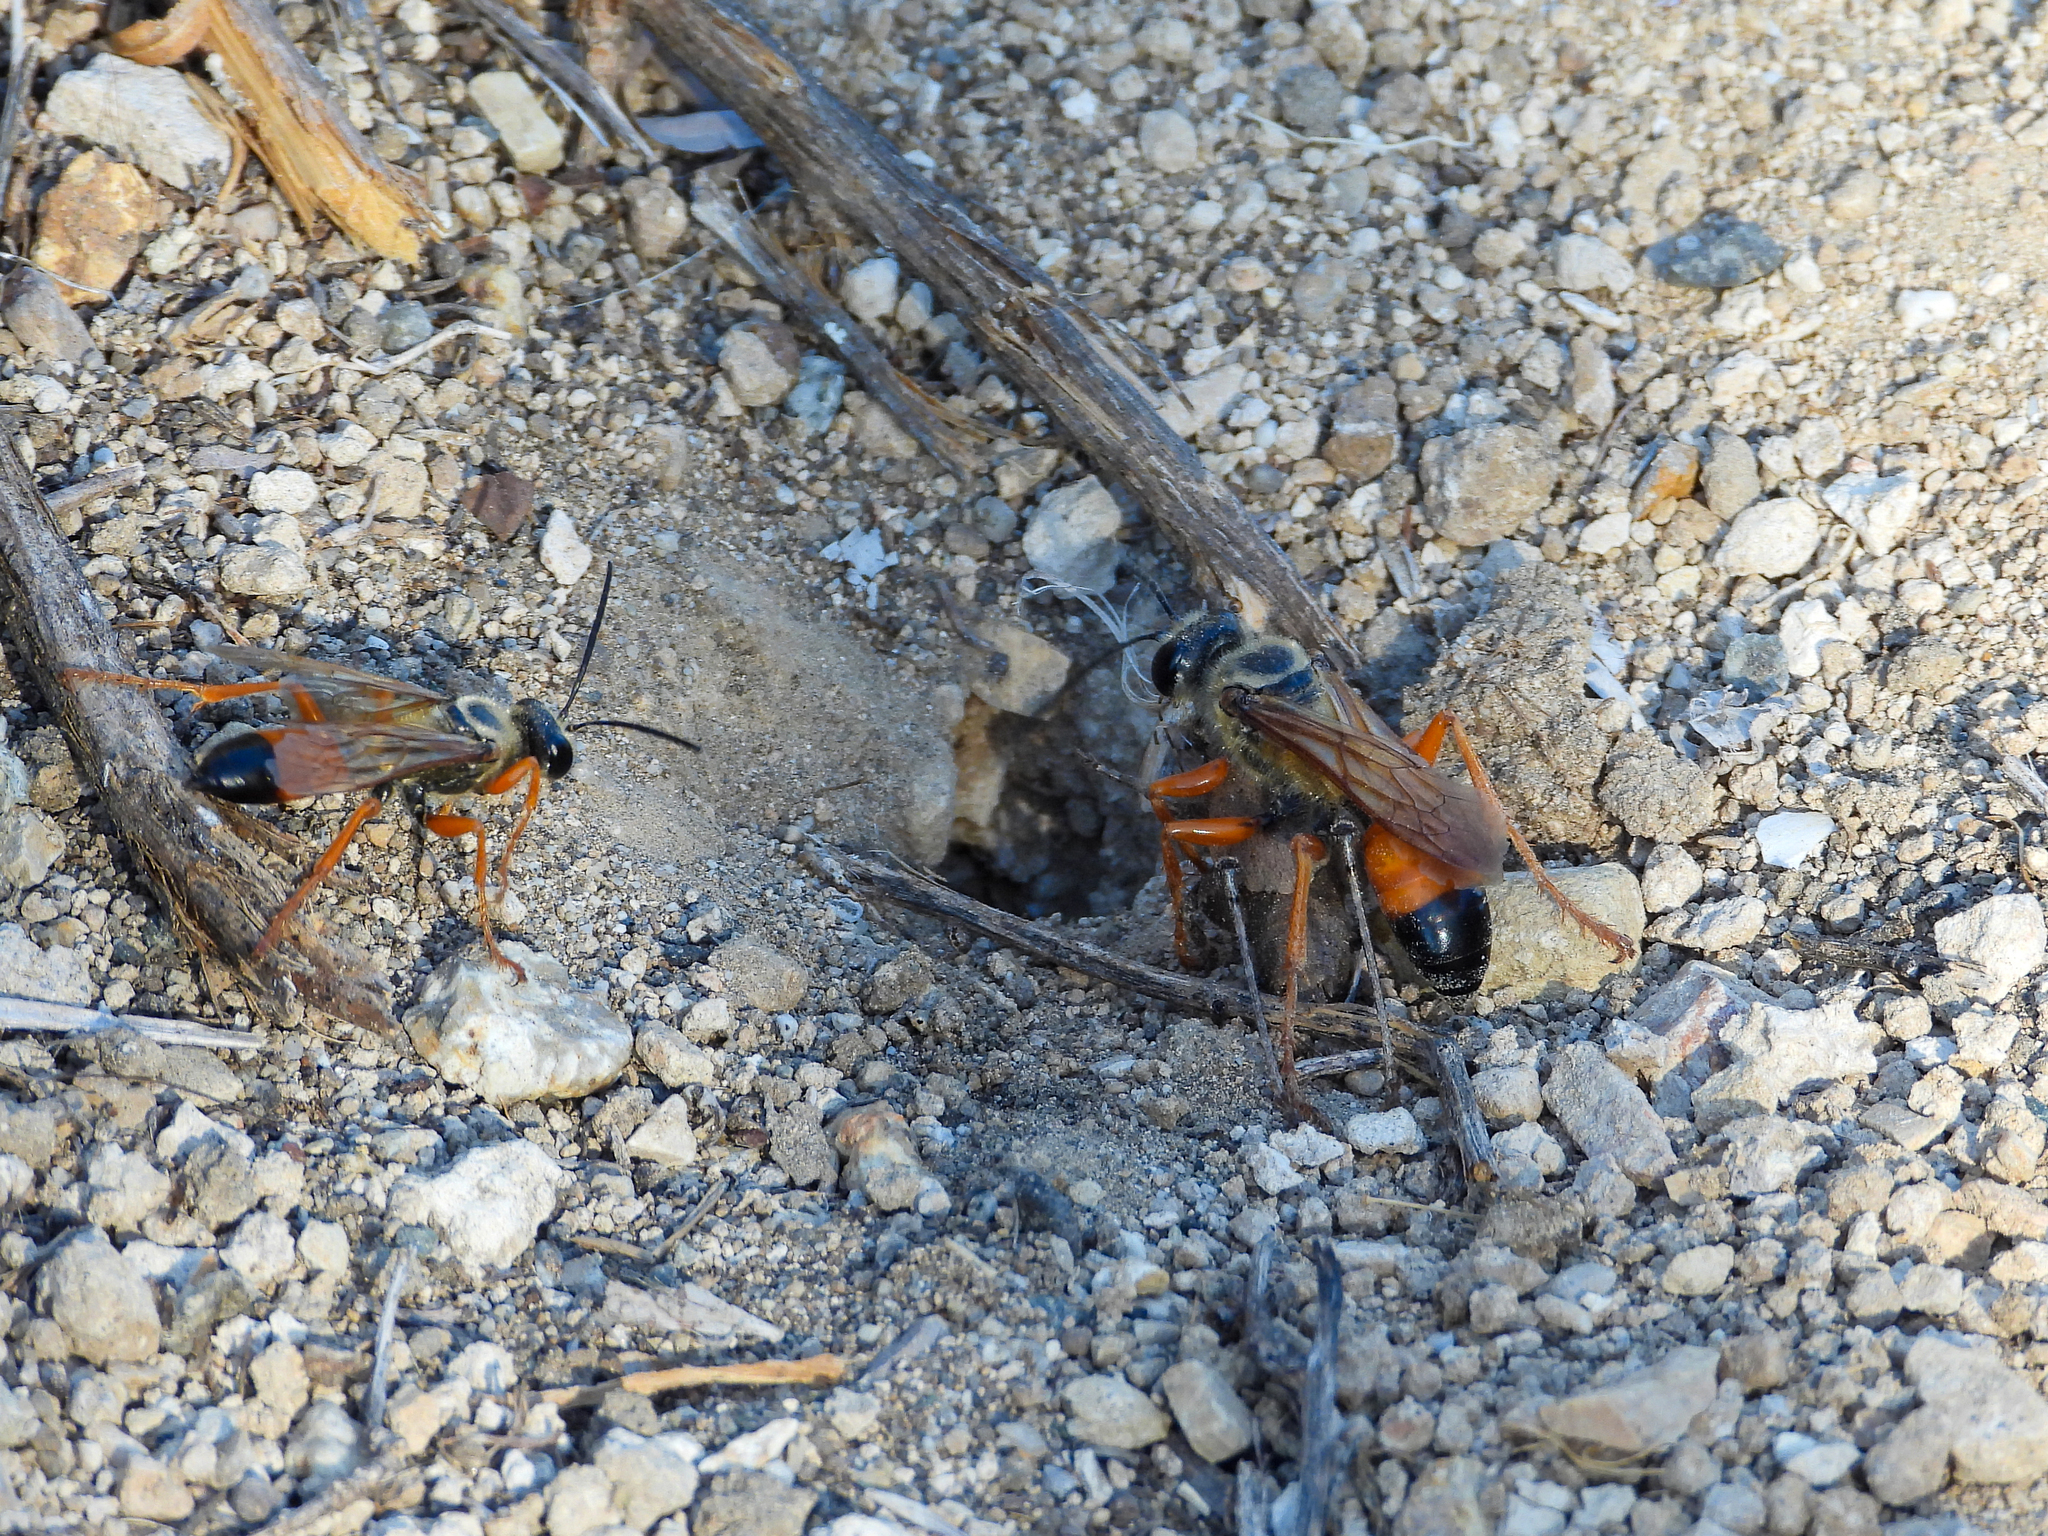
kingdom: Animalia
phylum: Arthropoda
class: Insecta
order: Hymenoptera
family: Sphecidae
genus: Sphex
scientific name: Sphex ichneumoneus
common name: Great golden digger wasp
